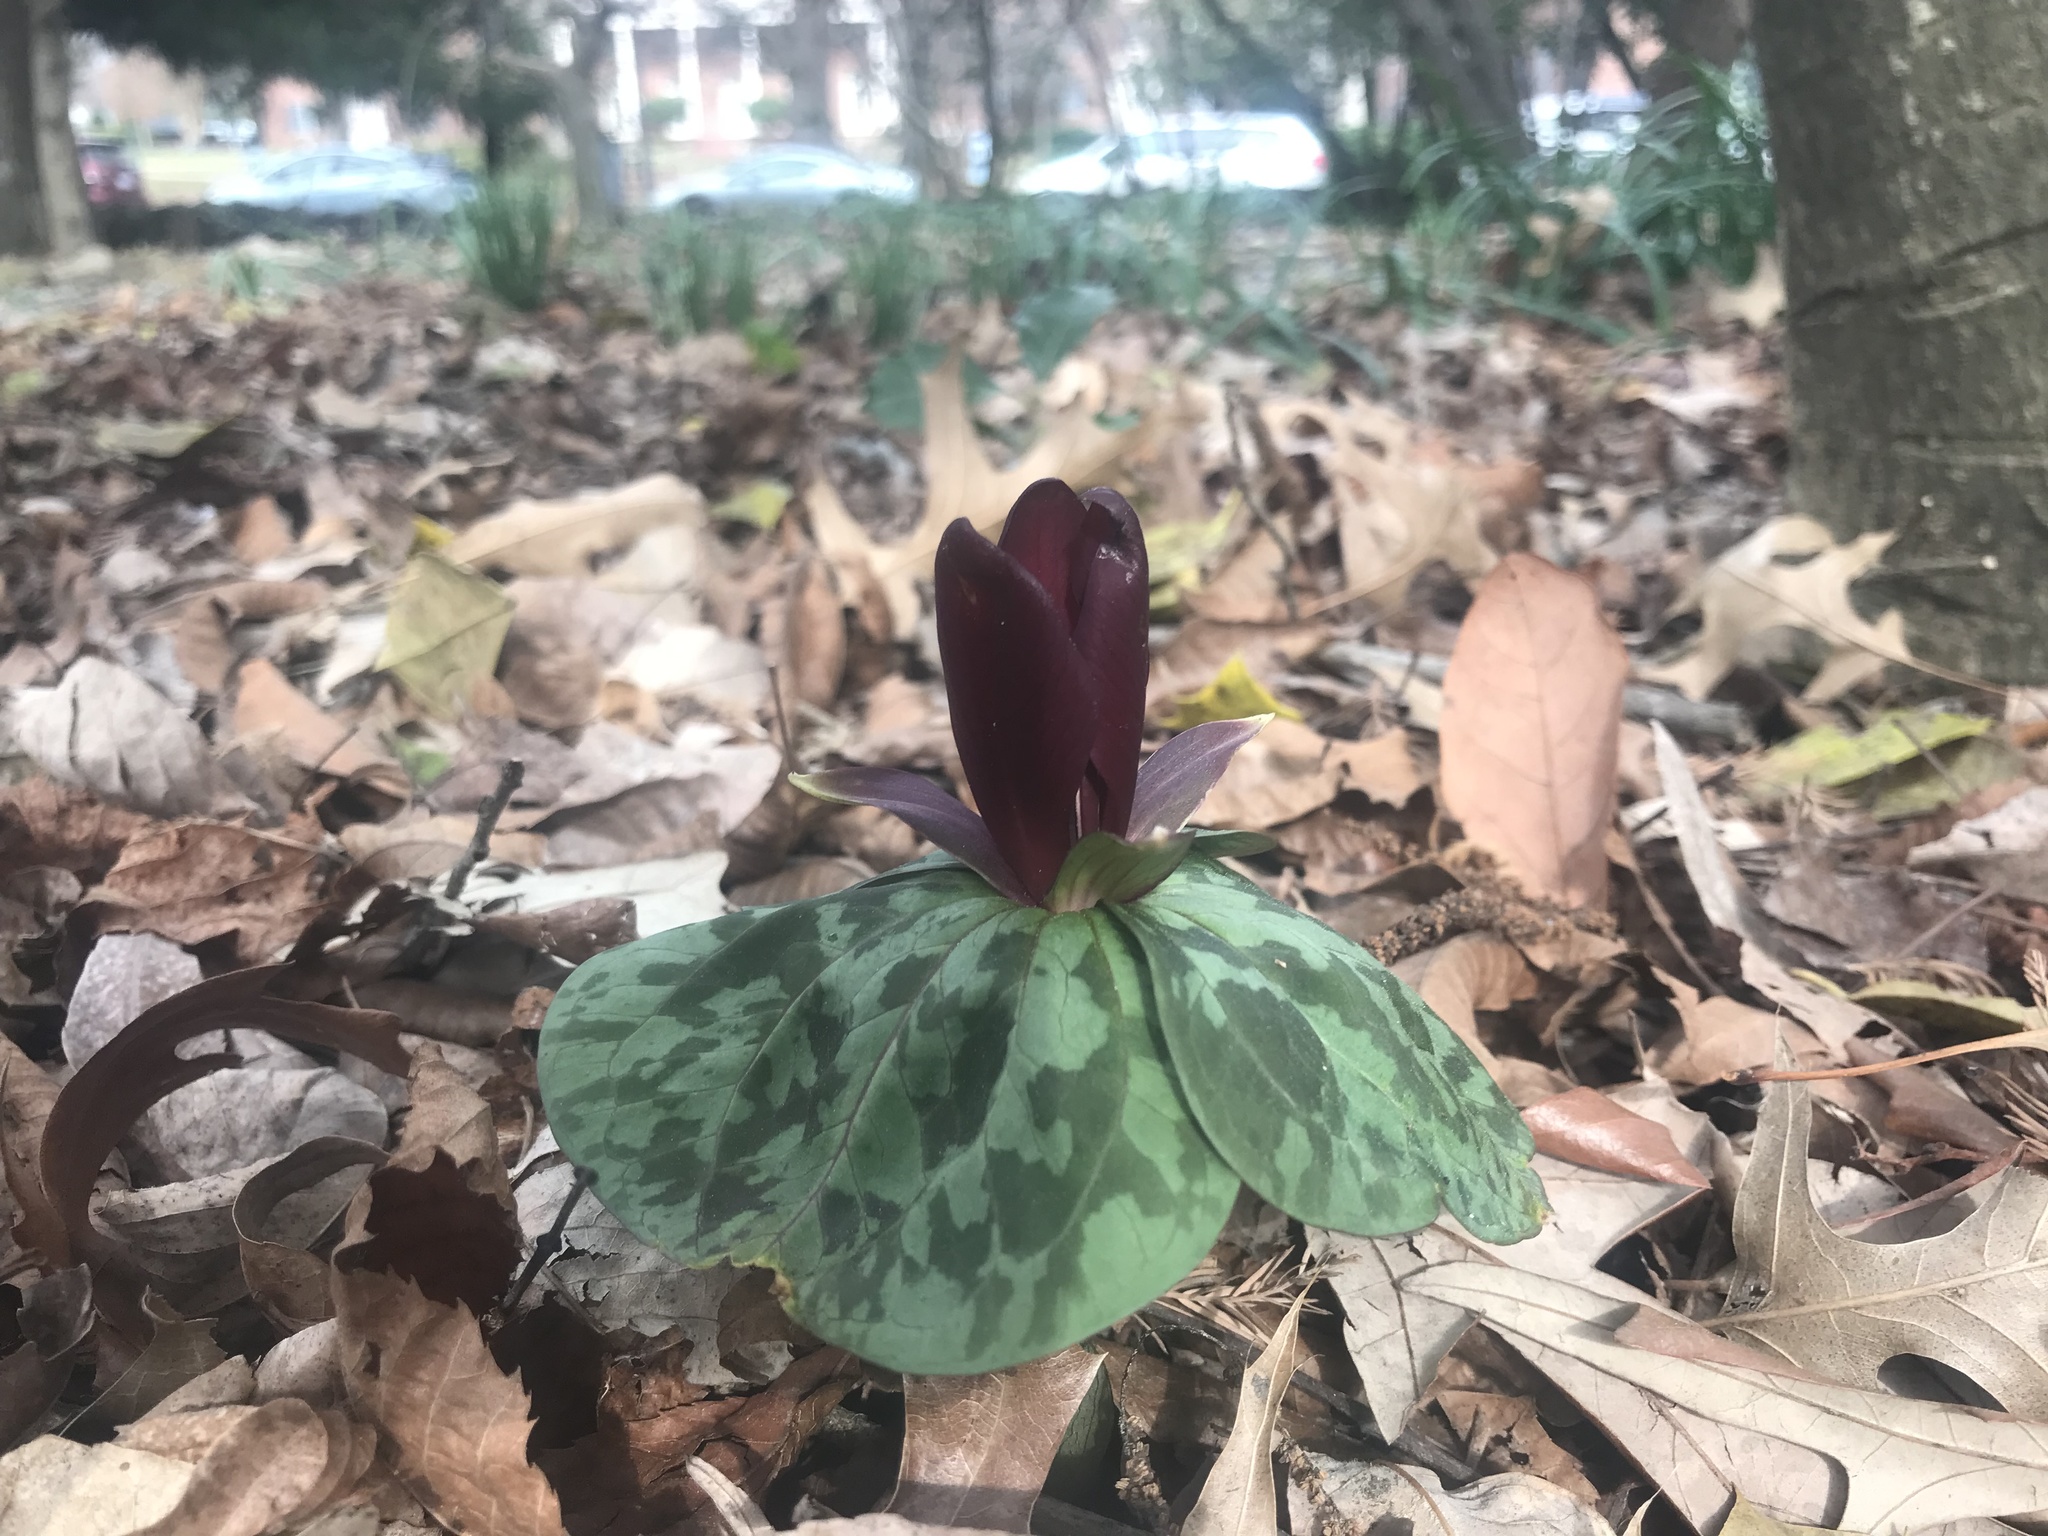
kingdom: Plantae
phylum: Tracheophyta
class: Liliopsida
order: Liliales
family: Melanthiaceae
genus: Trillium
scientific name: Trillium cuneatum
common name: Cuneate trillium
